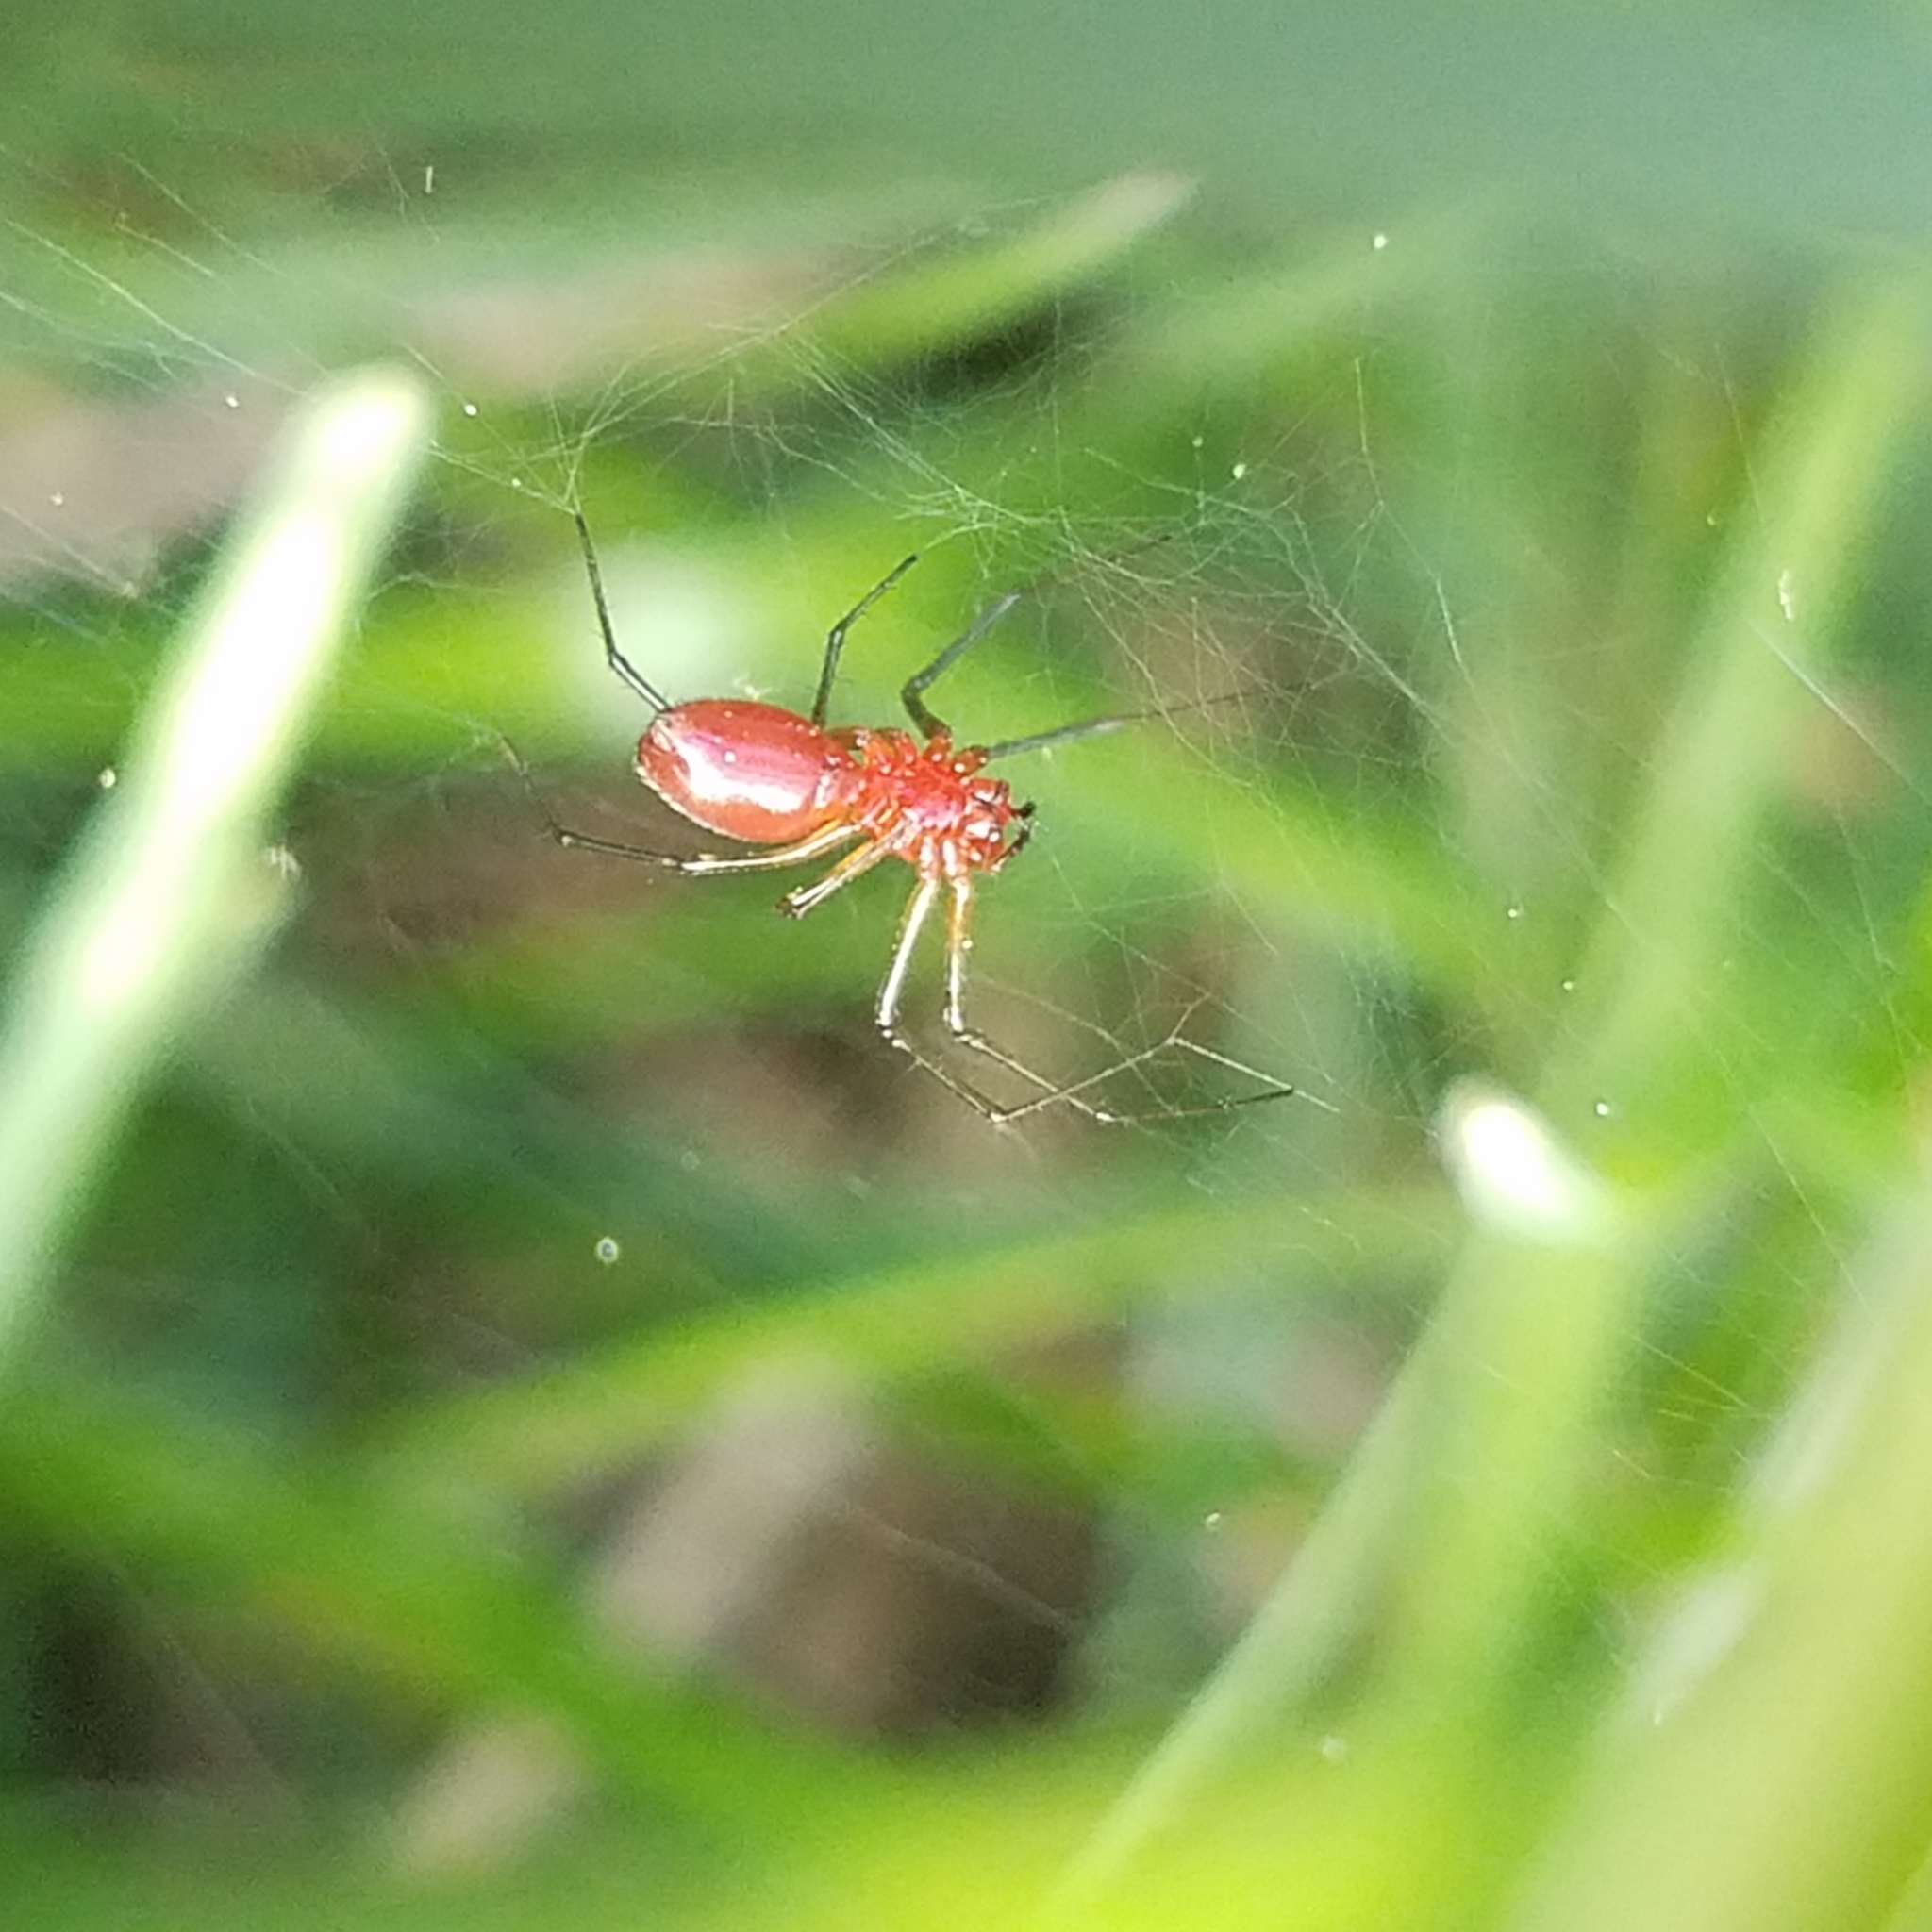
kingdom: Animalia
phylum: Arthropoda
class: Arachnida
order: Araneae
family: Linyphiidae
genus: Florinda
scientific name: Florinda coccinea
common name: Black-tailed red sheetweaver
